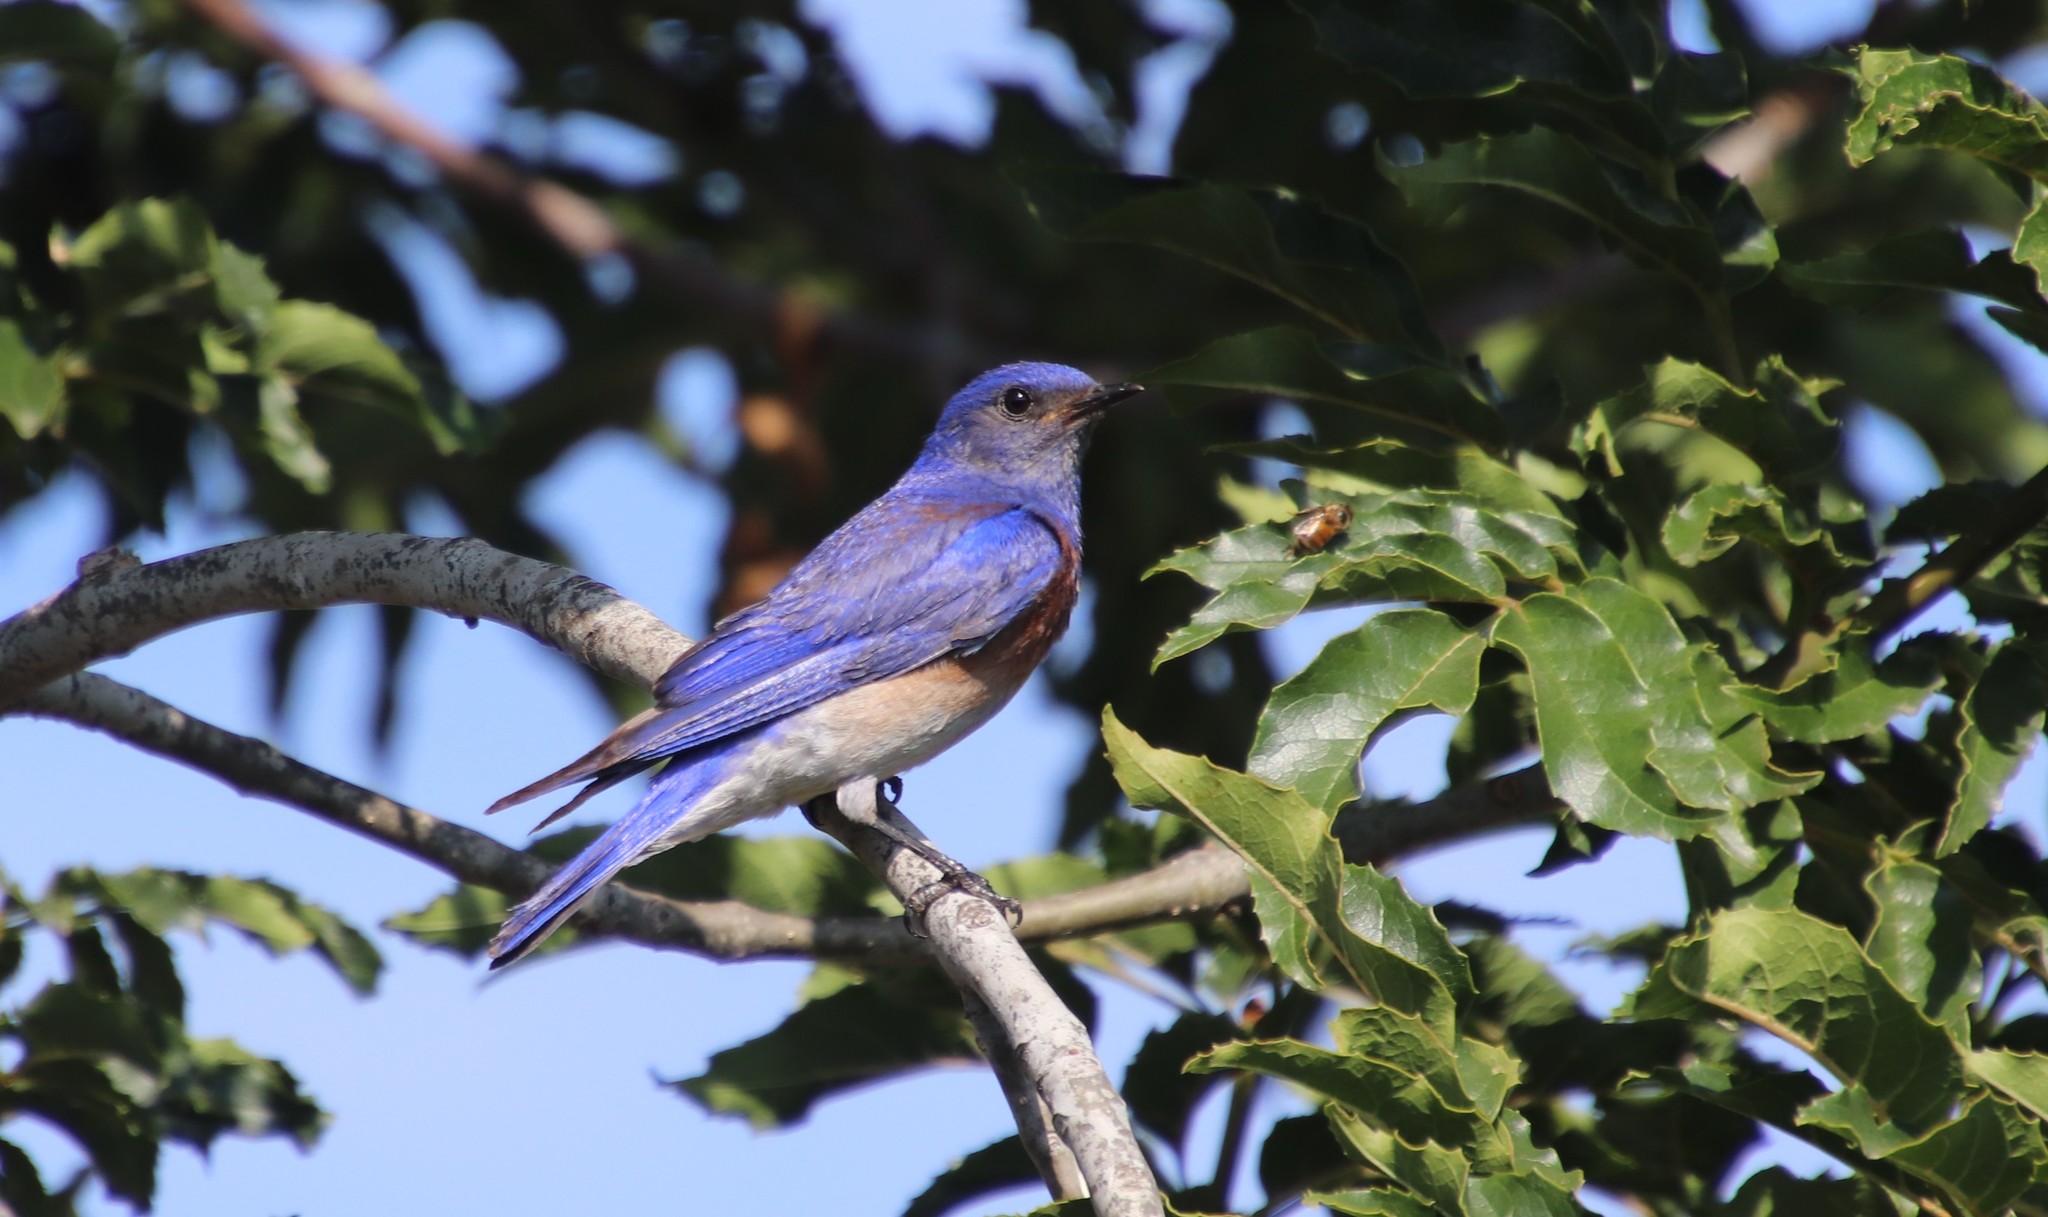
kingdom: Animalia
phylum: Chordata
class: Aves
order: Passeriformes
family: Turdidae
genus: Sialia
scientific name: Sialia mexicana
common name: Western bluebird
